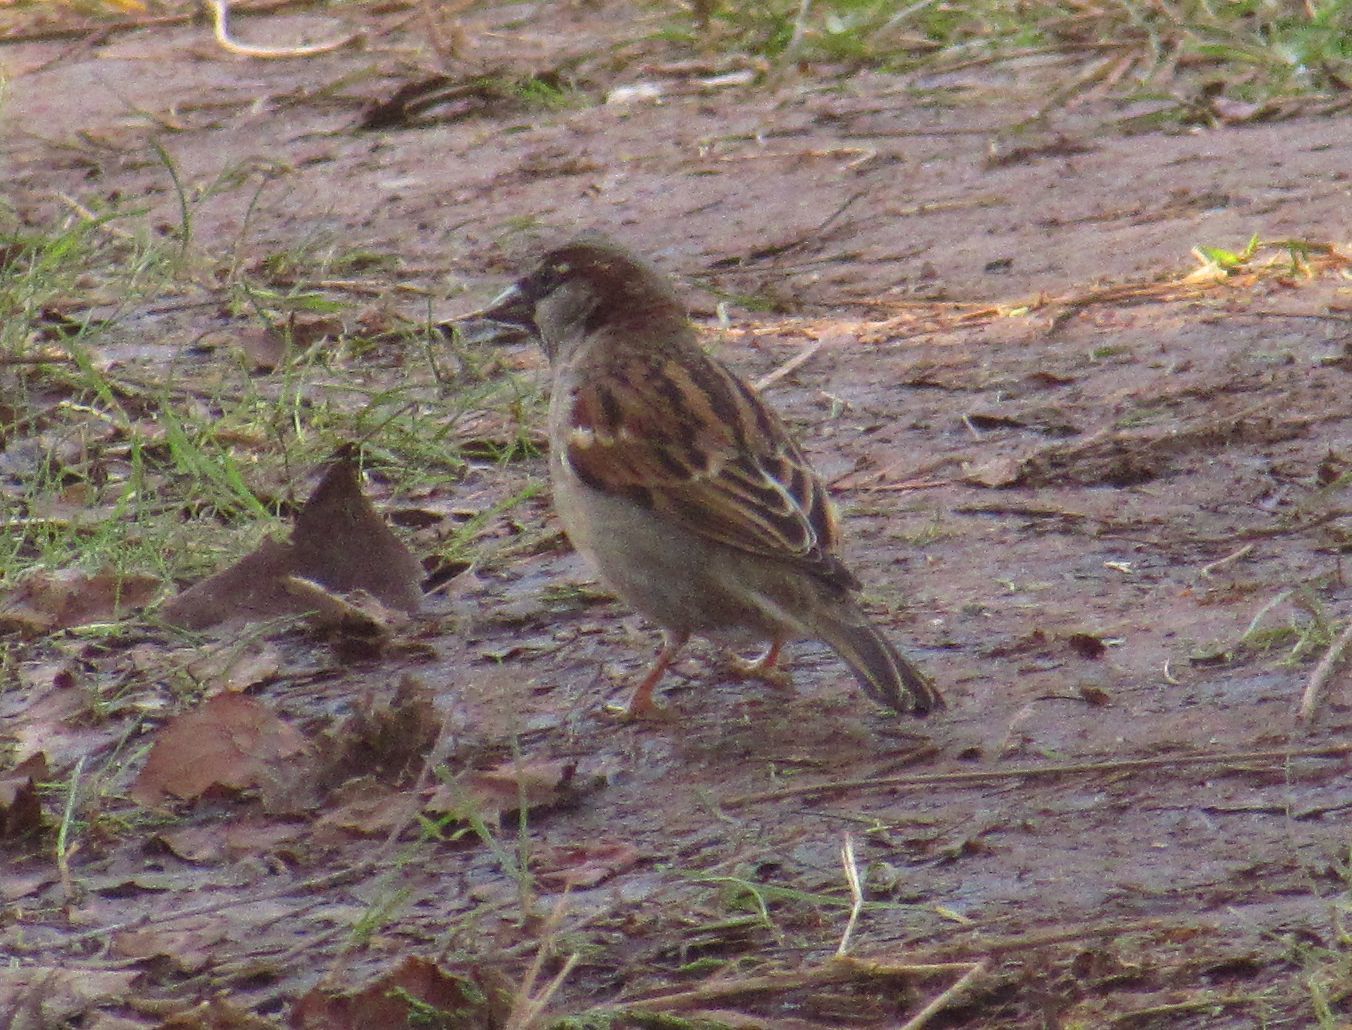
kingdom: Animalia
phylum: Chordata
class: Aves
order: Passeriformes
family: Passeridae
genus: Passer
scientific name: Passer domesticus
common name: House sparrow
